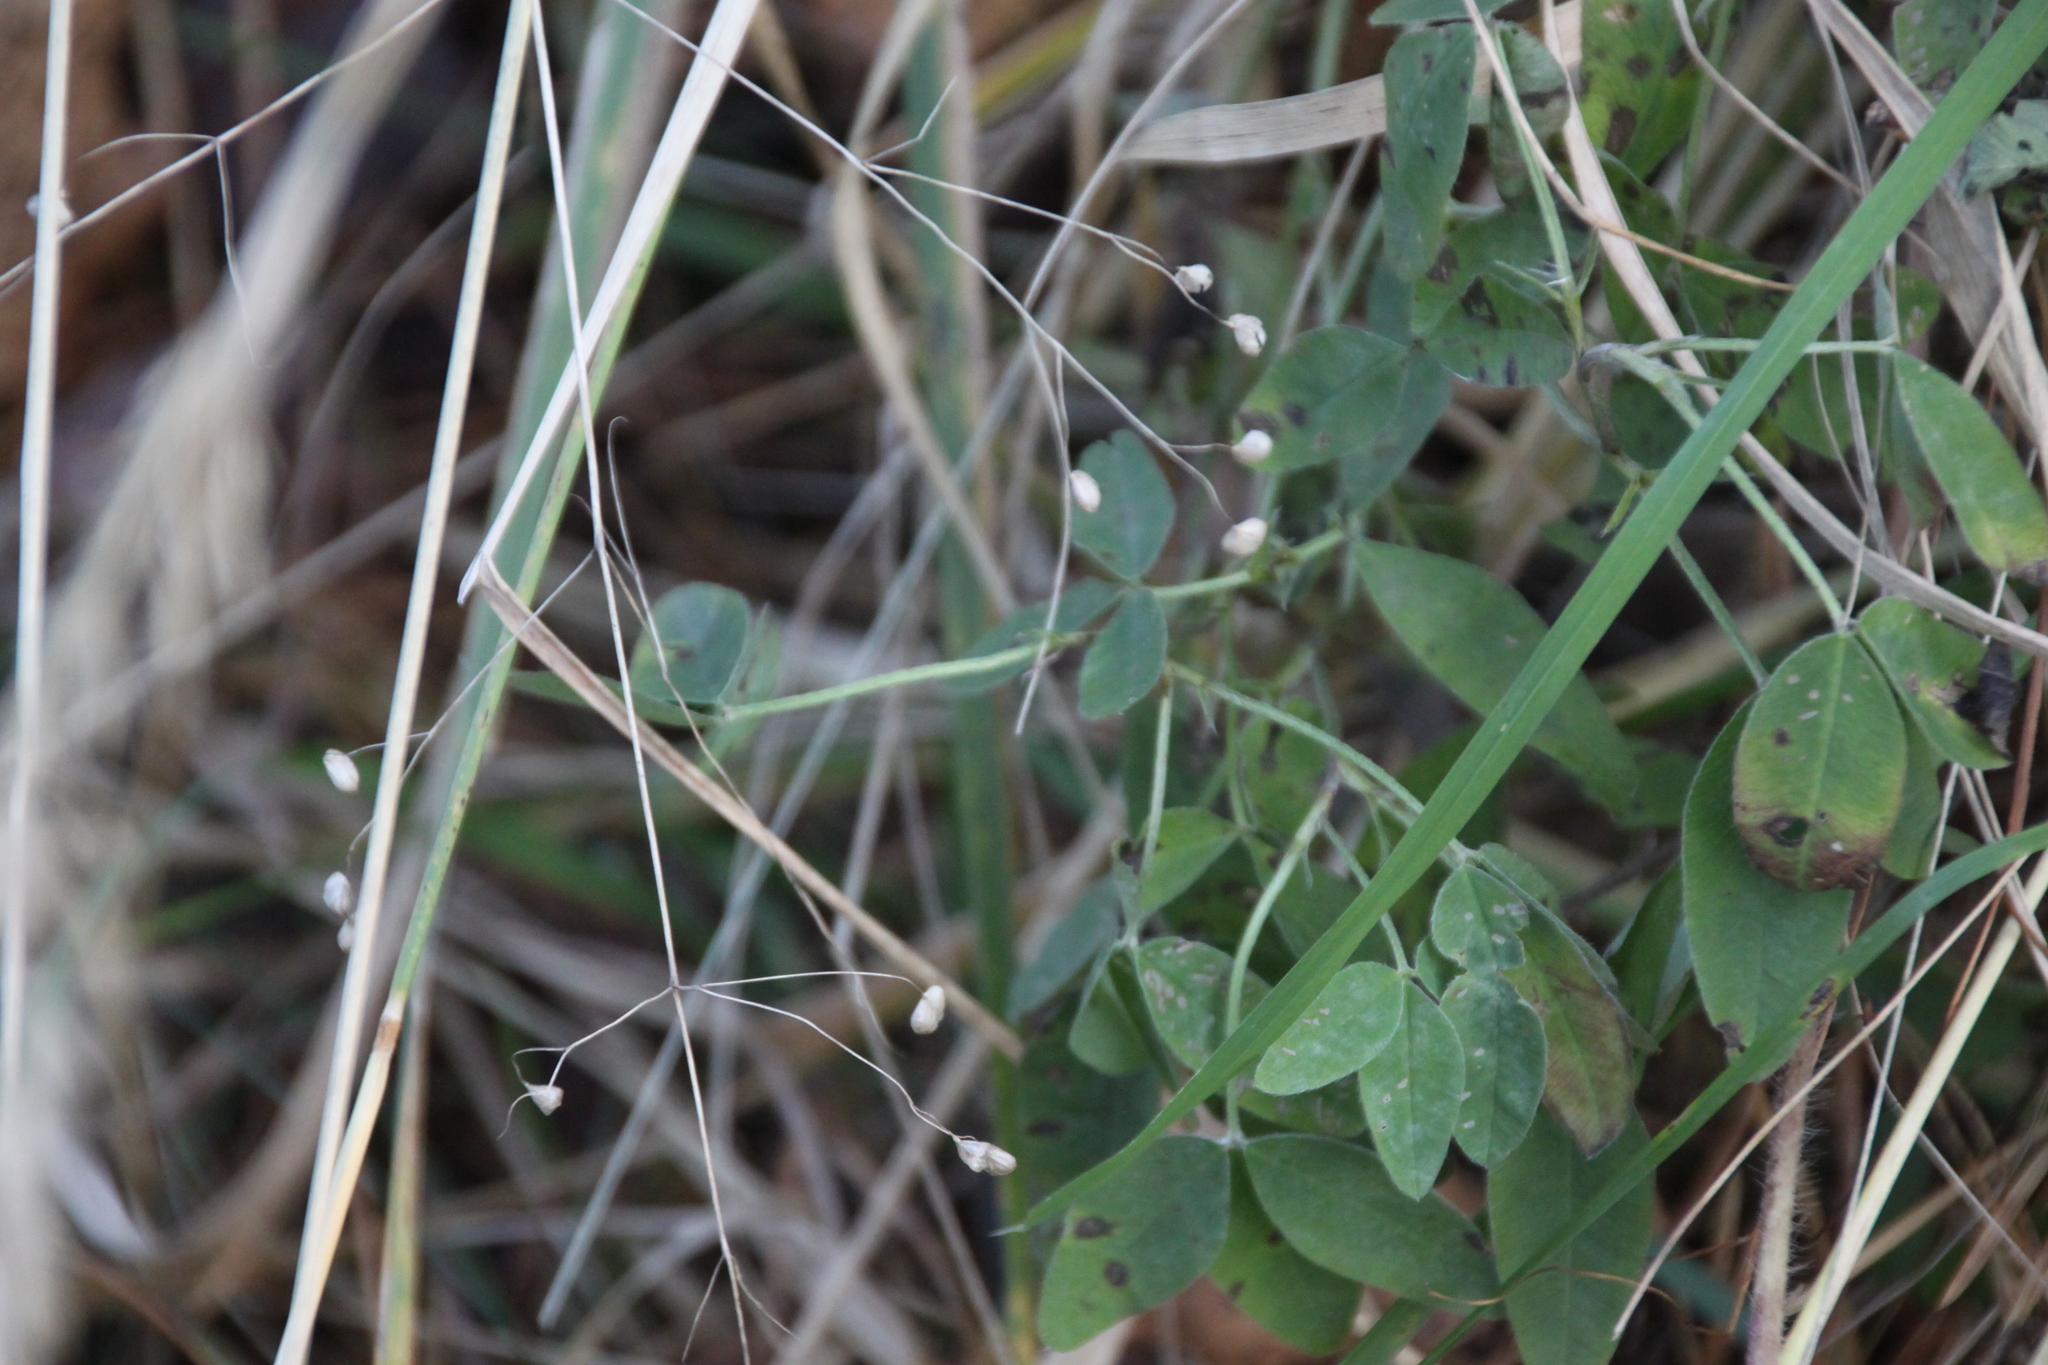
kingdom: Plantae
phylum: Tracheophyta
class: Liliopsida
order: Poales
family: Poaceae
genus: Briza
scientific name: Briza media
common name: Quaking grass
